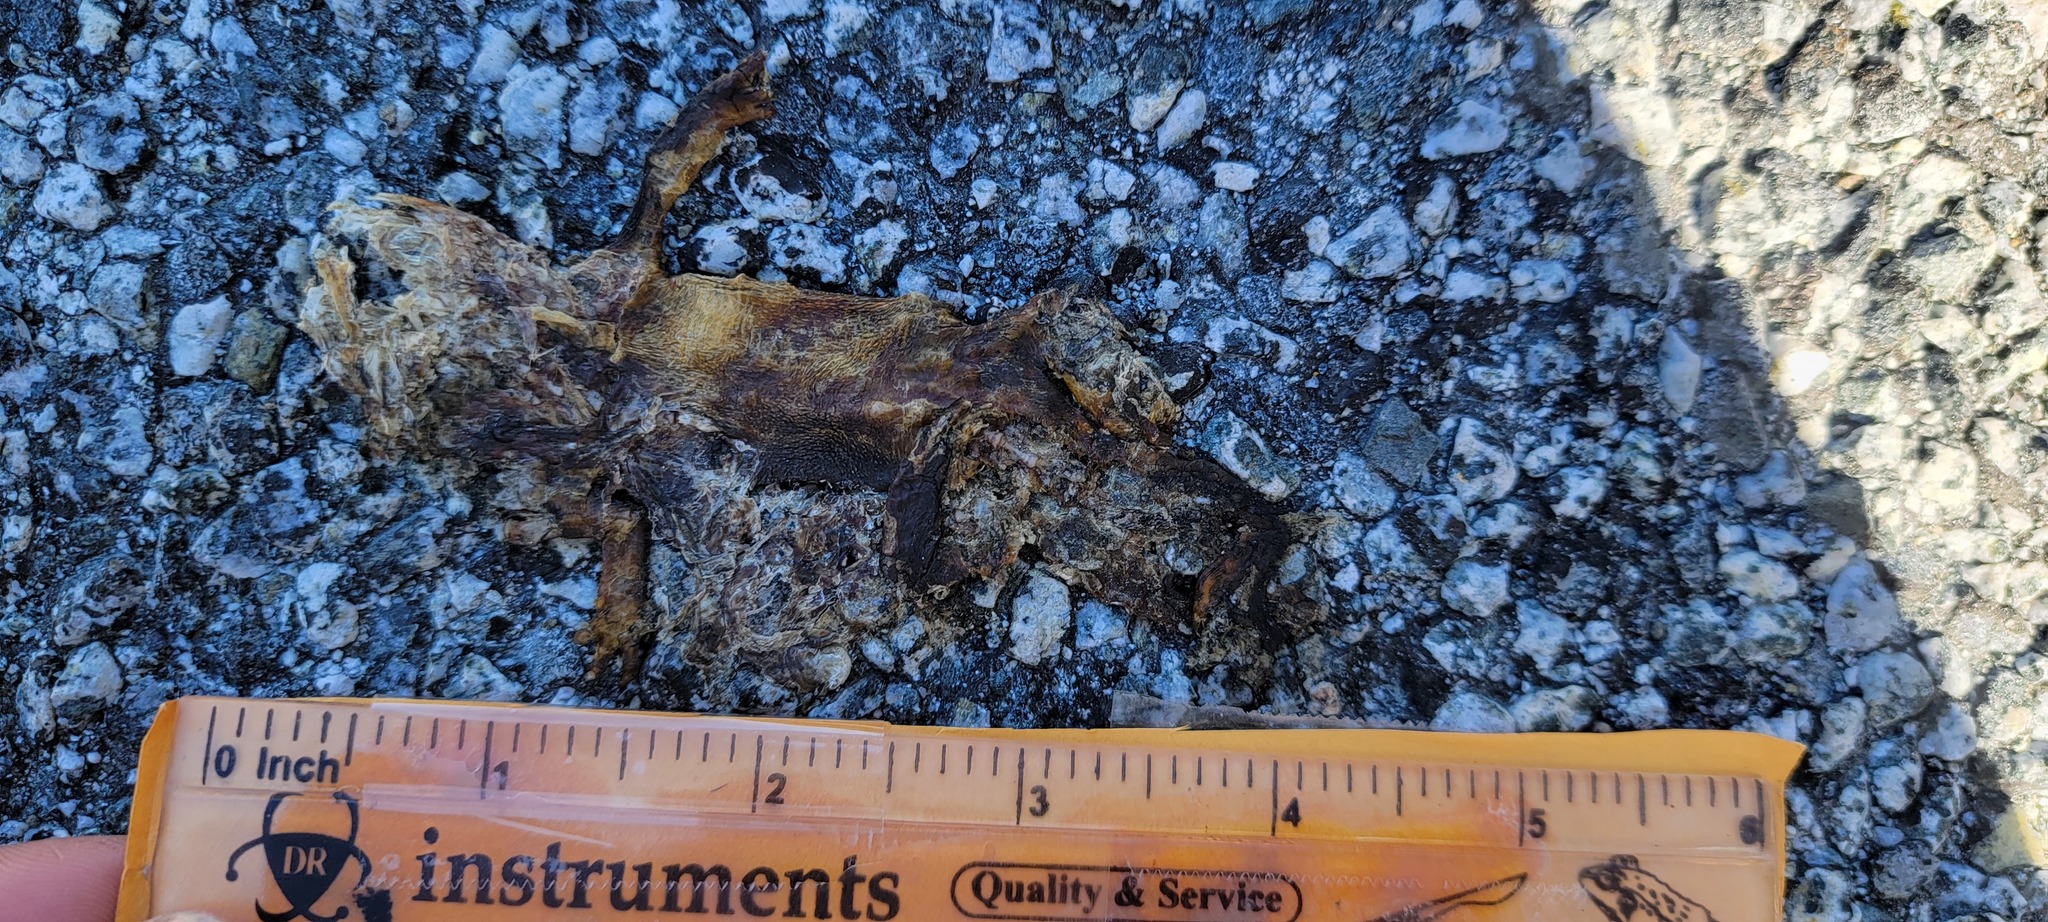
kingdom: Animalia
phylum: Chordata
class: Amphibia
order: Caudata
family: Salamandridae
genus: Taricha
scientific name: Taricha
